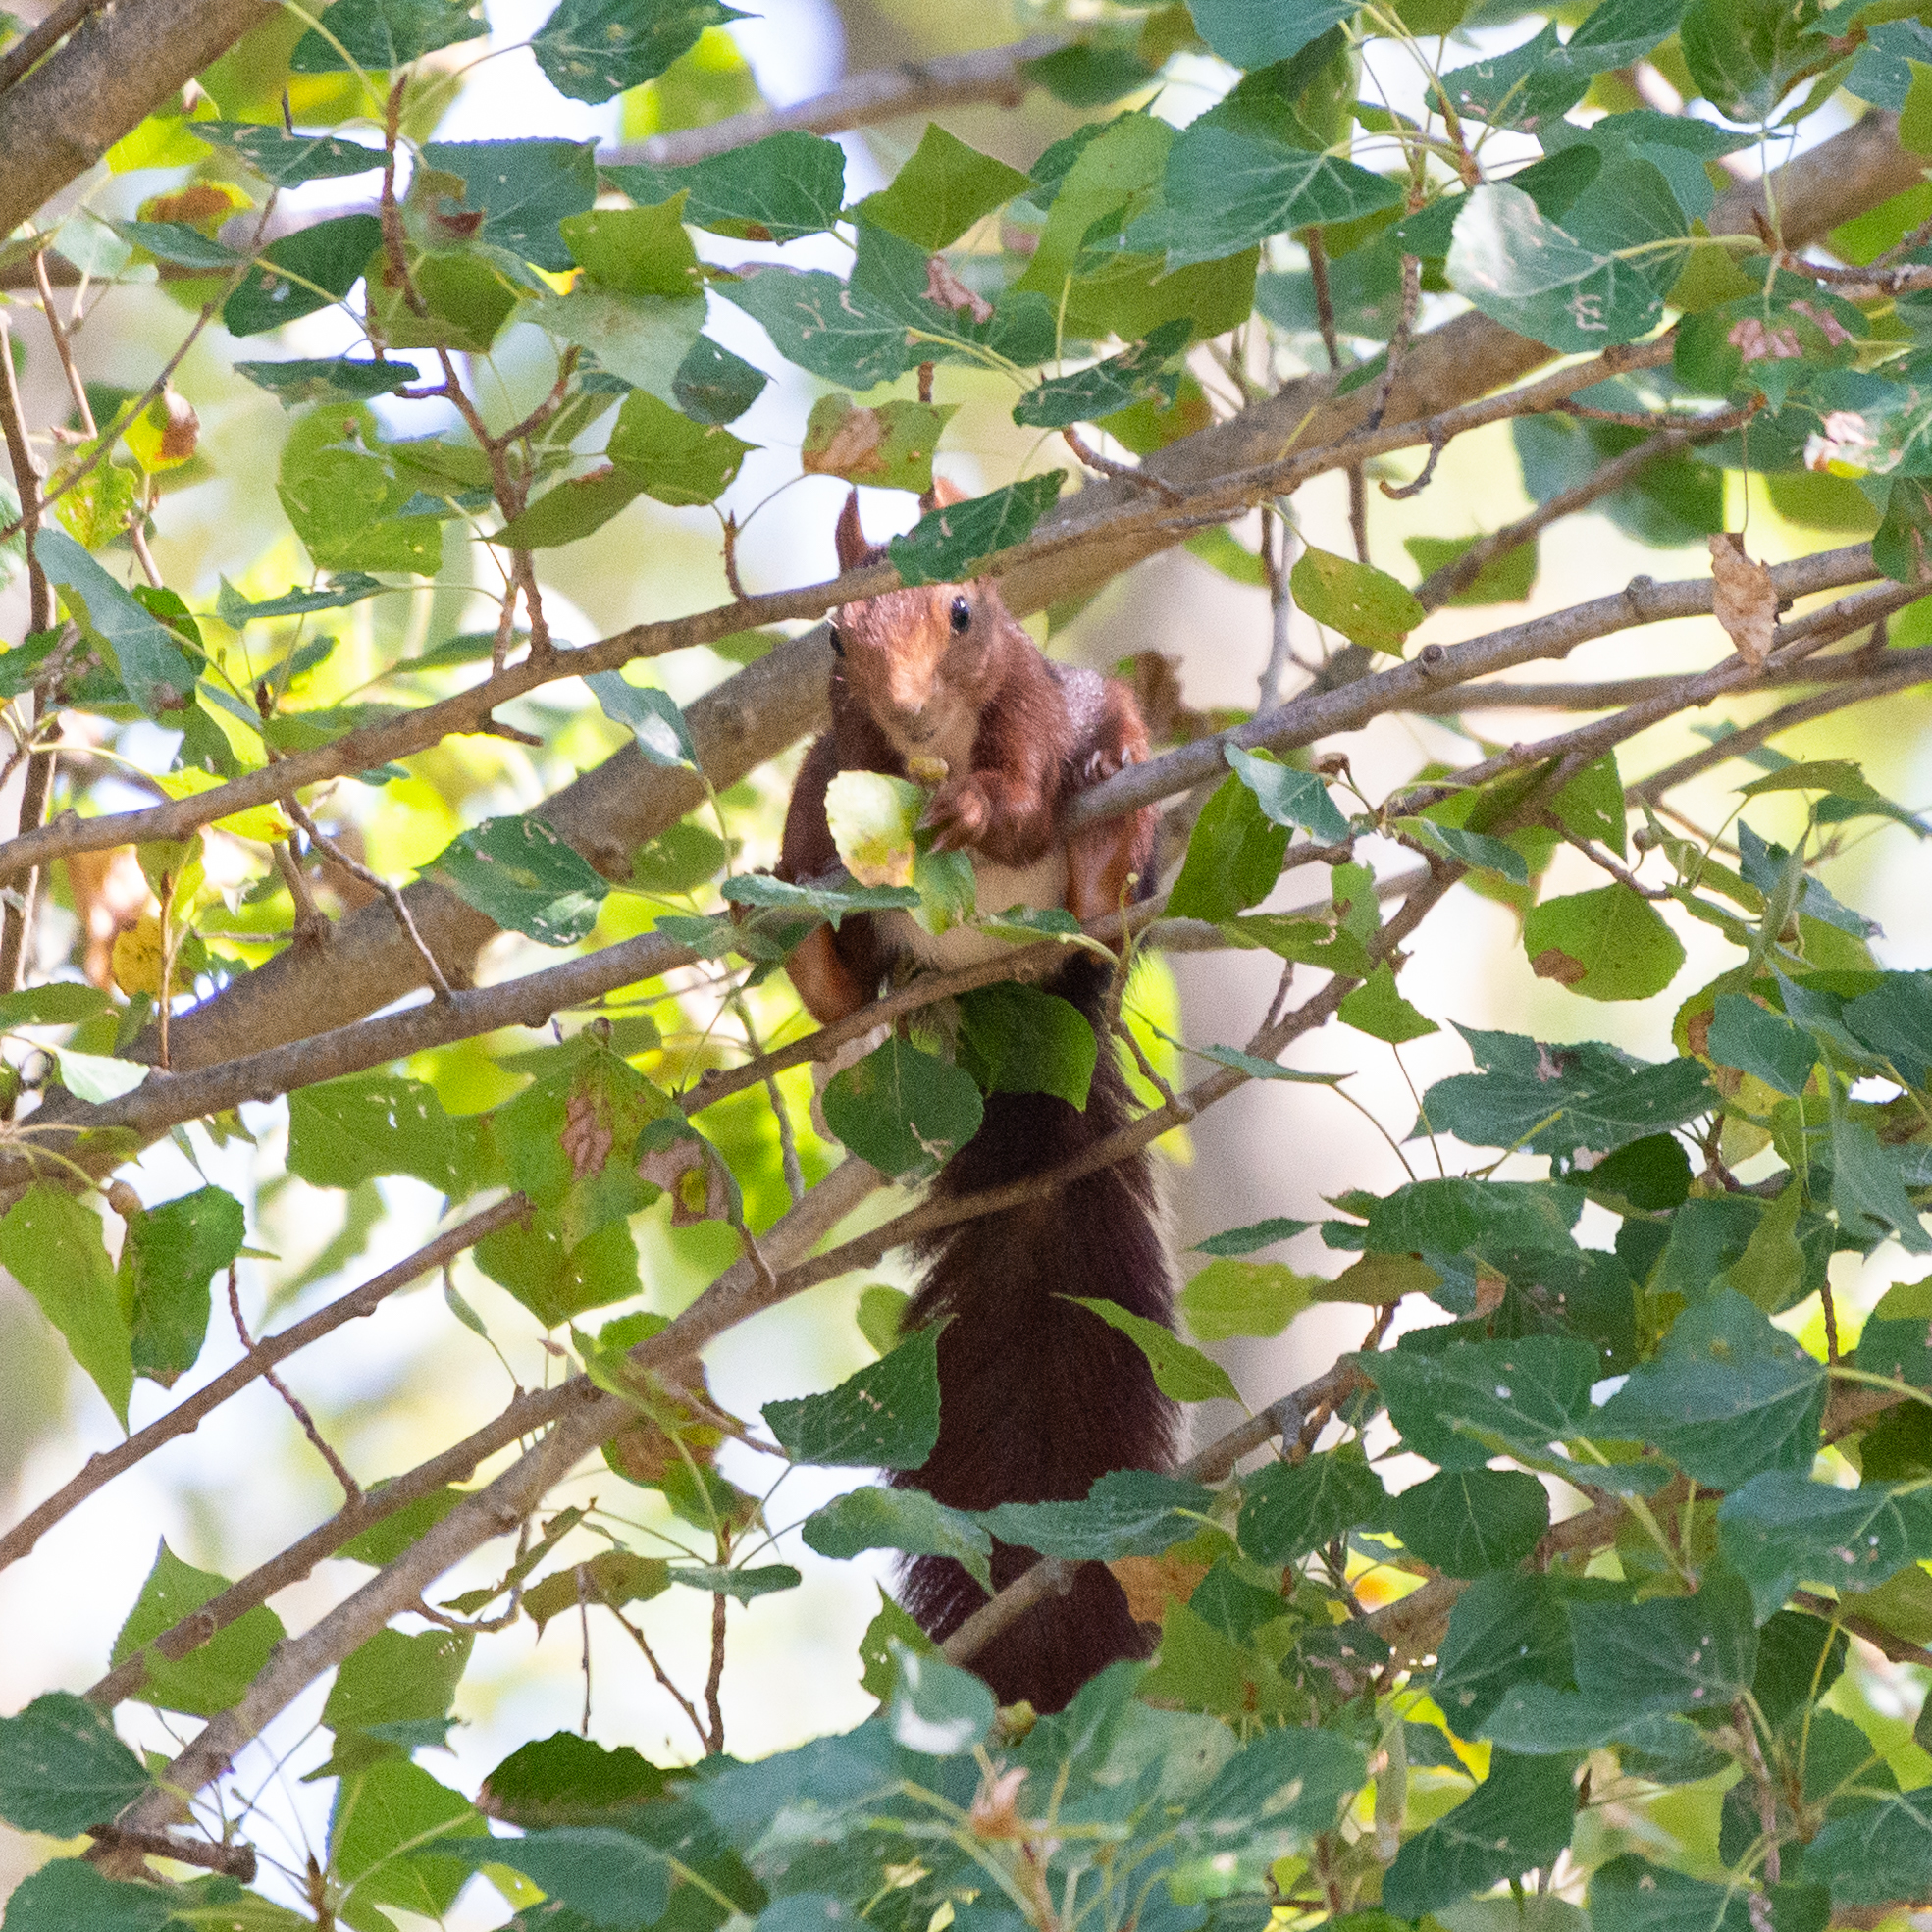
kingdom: Animalia
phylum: Chordata
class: Mammalia
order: Rodentia
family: Sciuridae
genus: Sciurus
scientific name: Sciurus vulgaris
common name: Eurasian red squirrel
